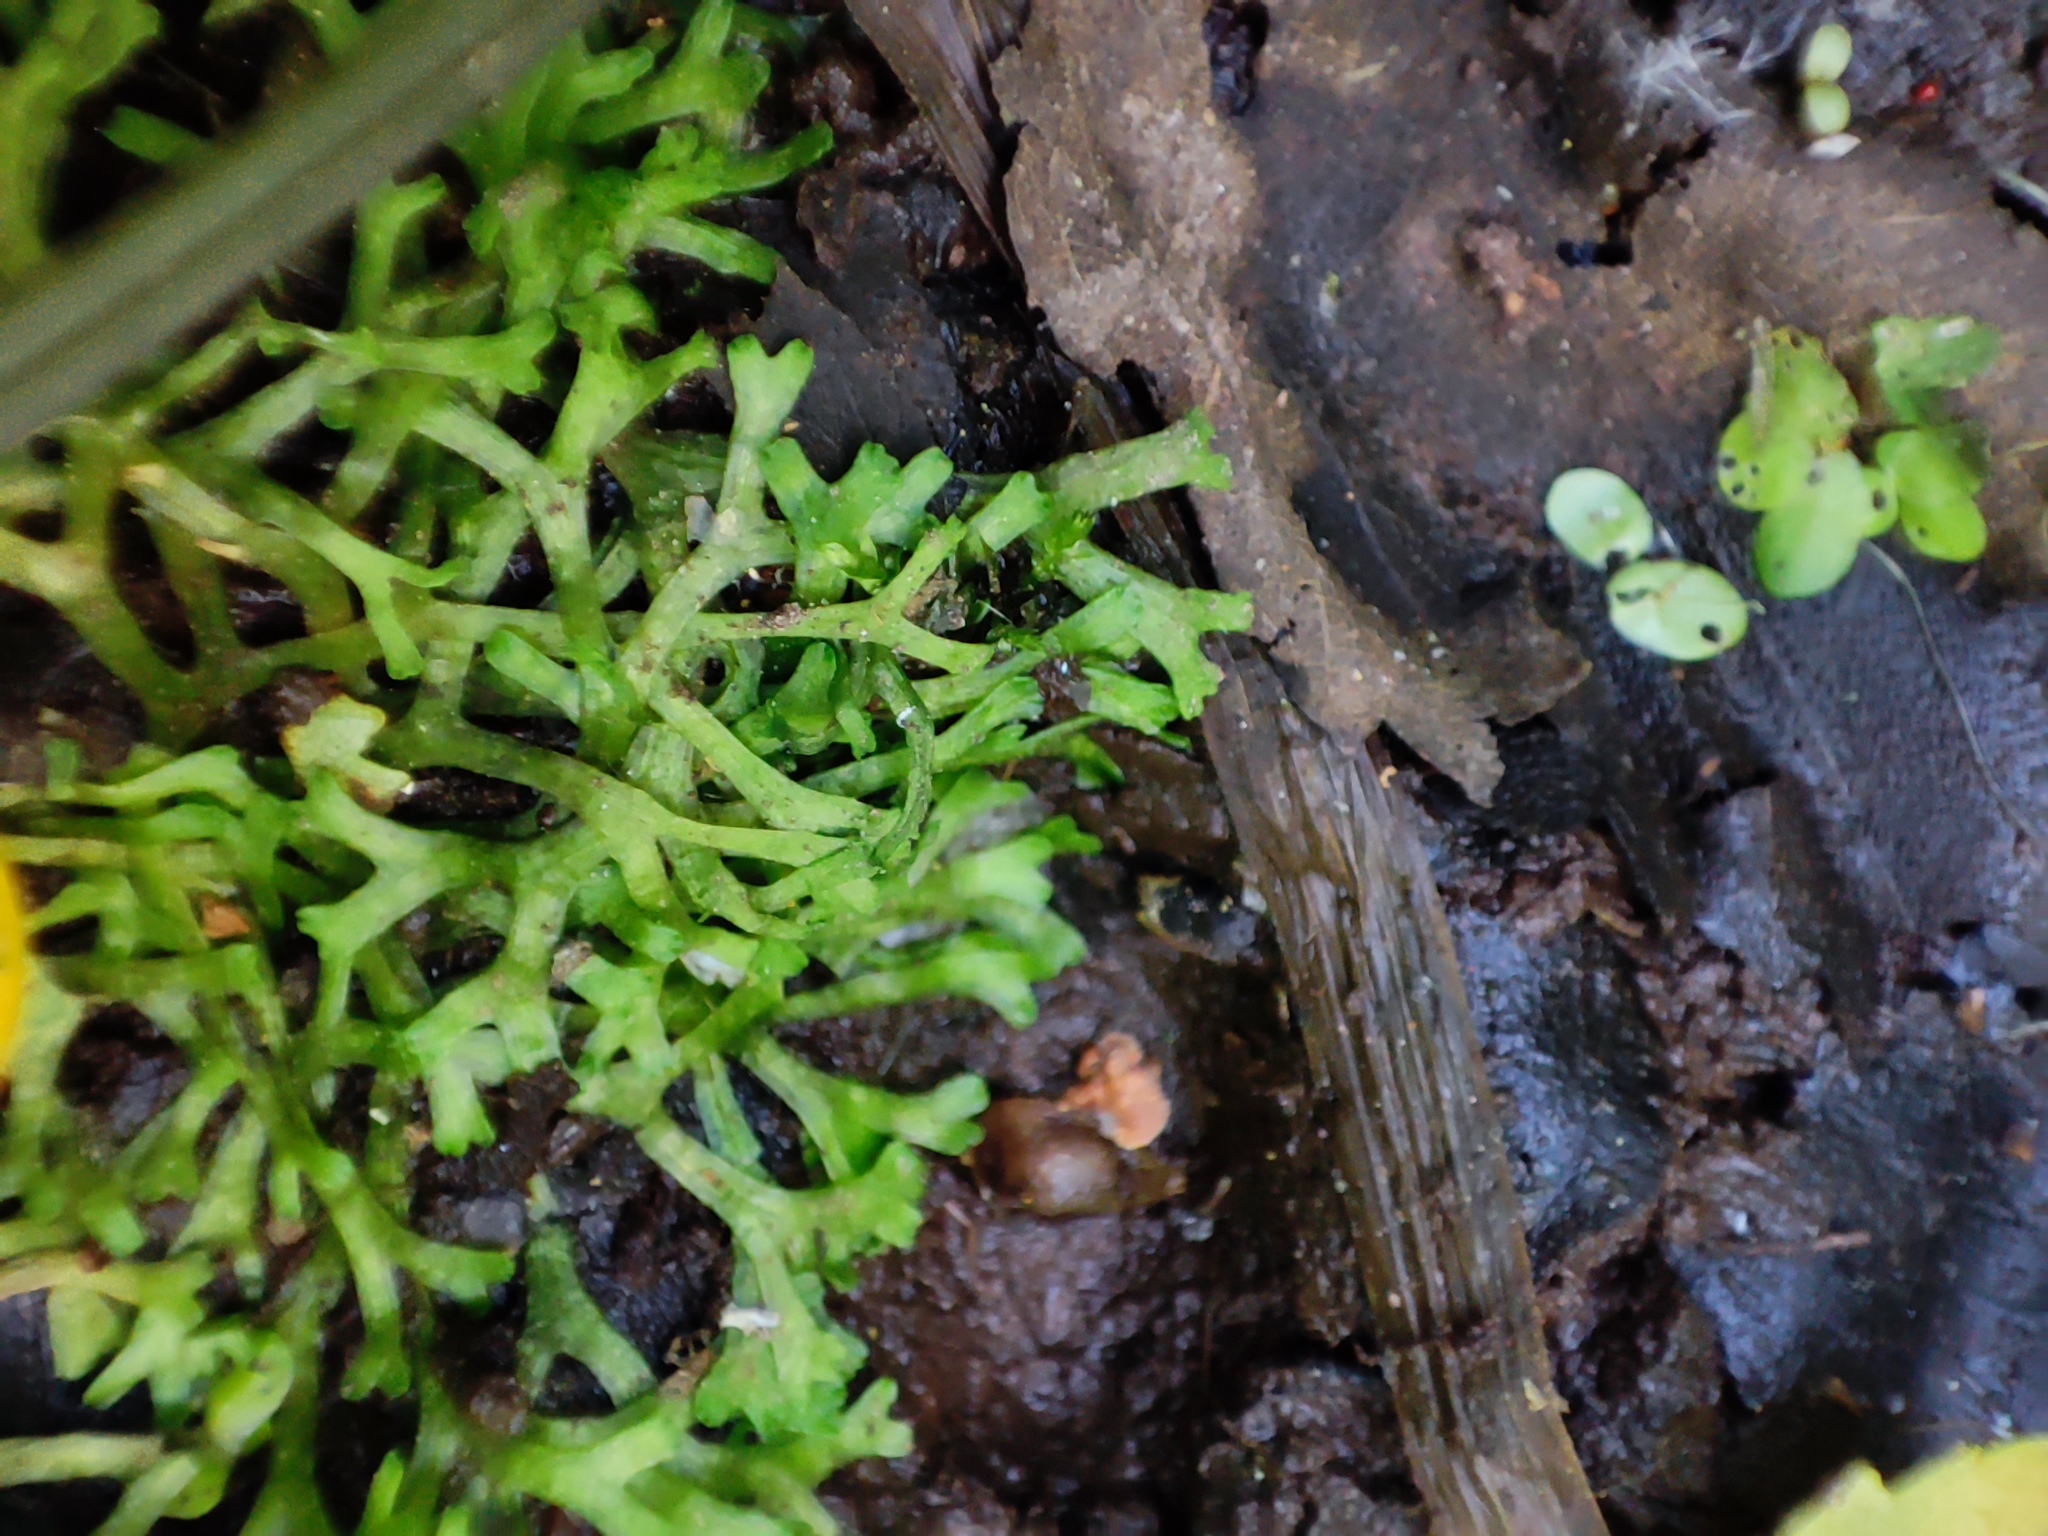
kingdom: Plantae
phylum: Marchantiophyta
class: Marchantiopsida
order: Marchantiales
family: Ricciaceae
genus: Riccia
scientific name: Riccia fluitans
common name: Floating crystalwort
